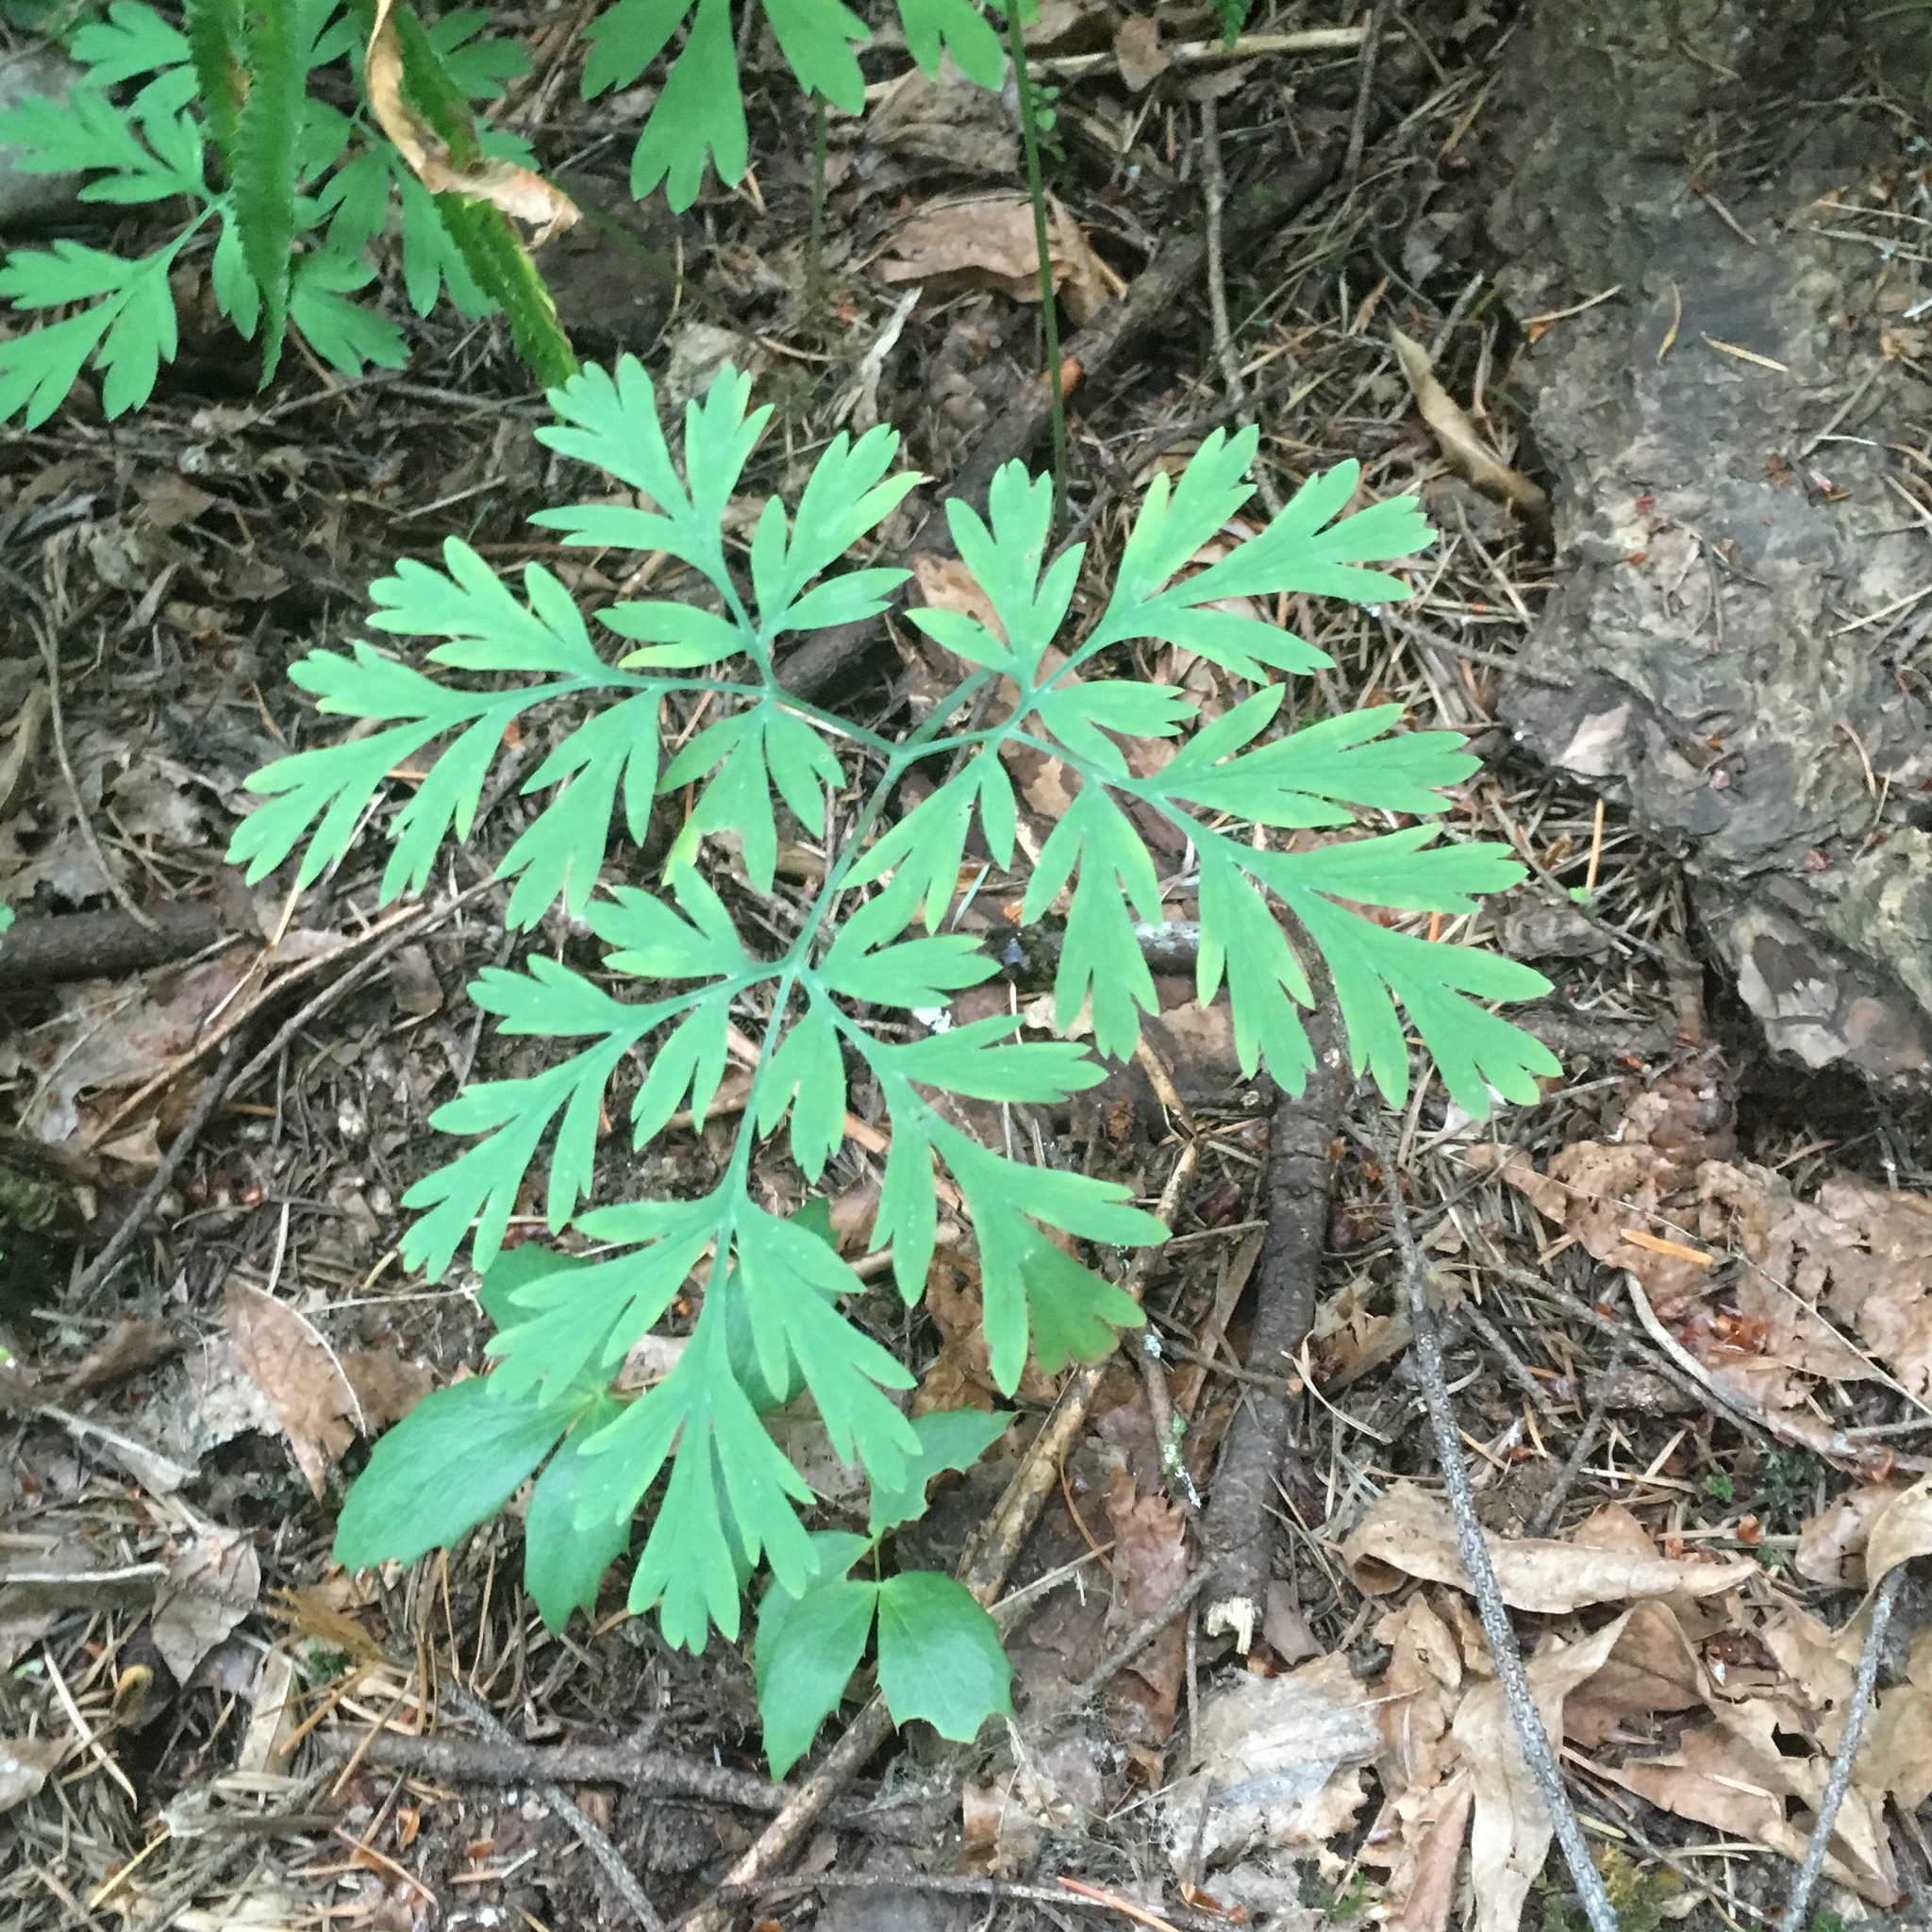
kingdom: Plantae
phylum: Tracheophyta
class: Magnoliopsida
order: Ranunculales
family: Papaveraceae
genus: Dicentra
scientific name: Dicentra formosa
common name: Bleeding-heart
